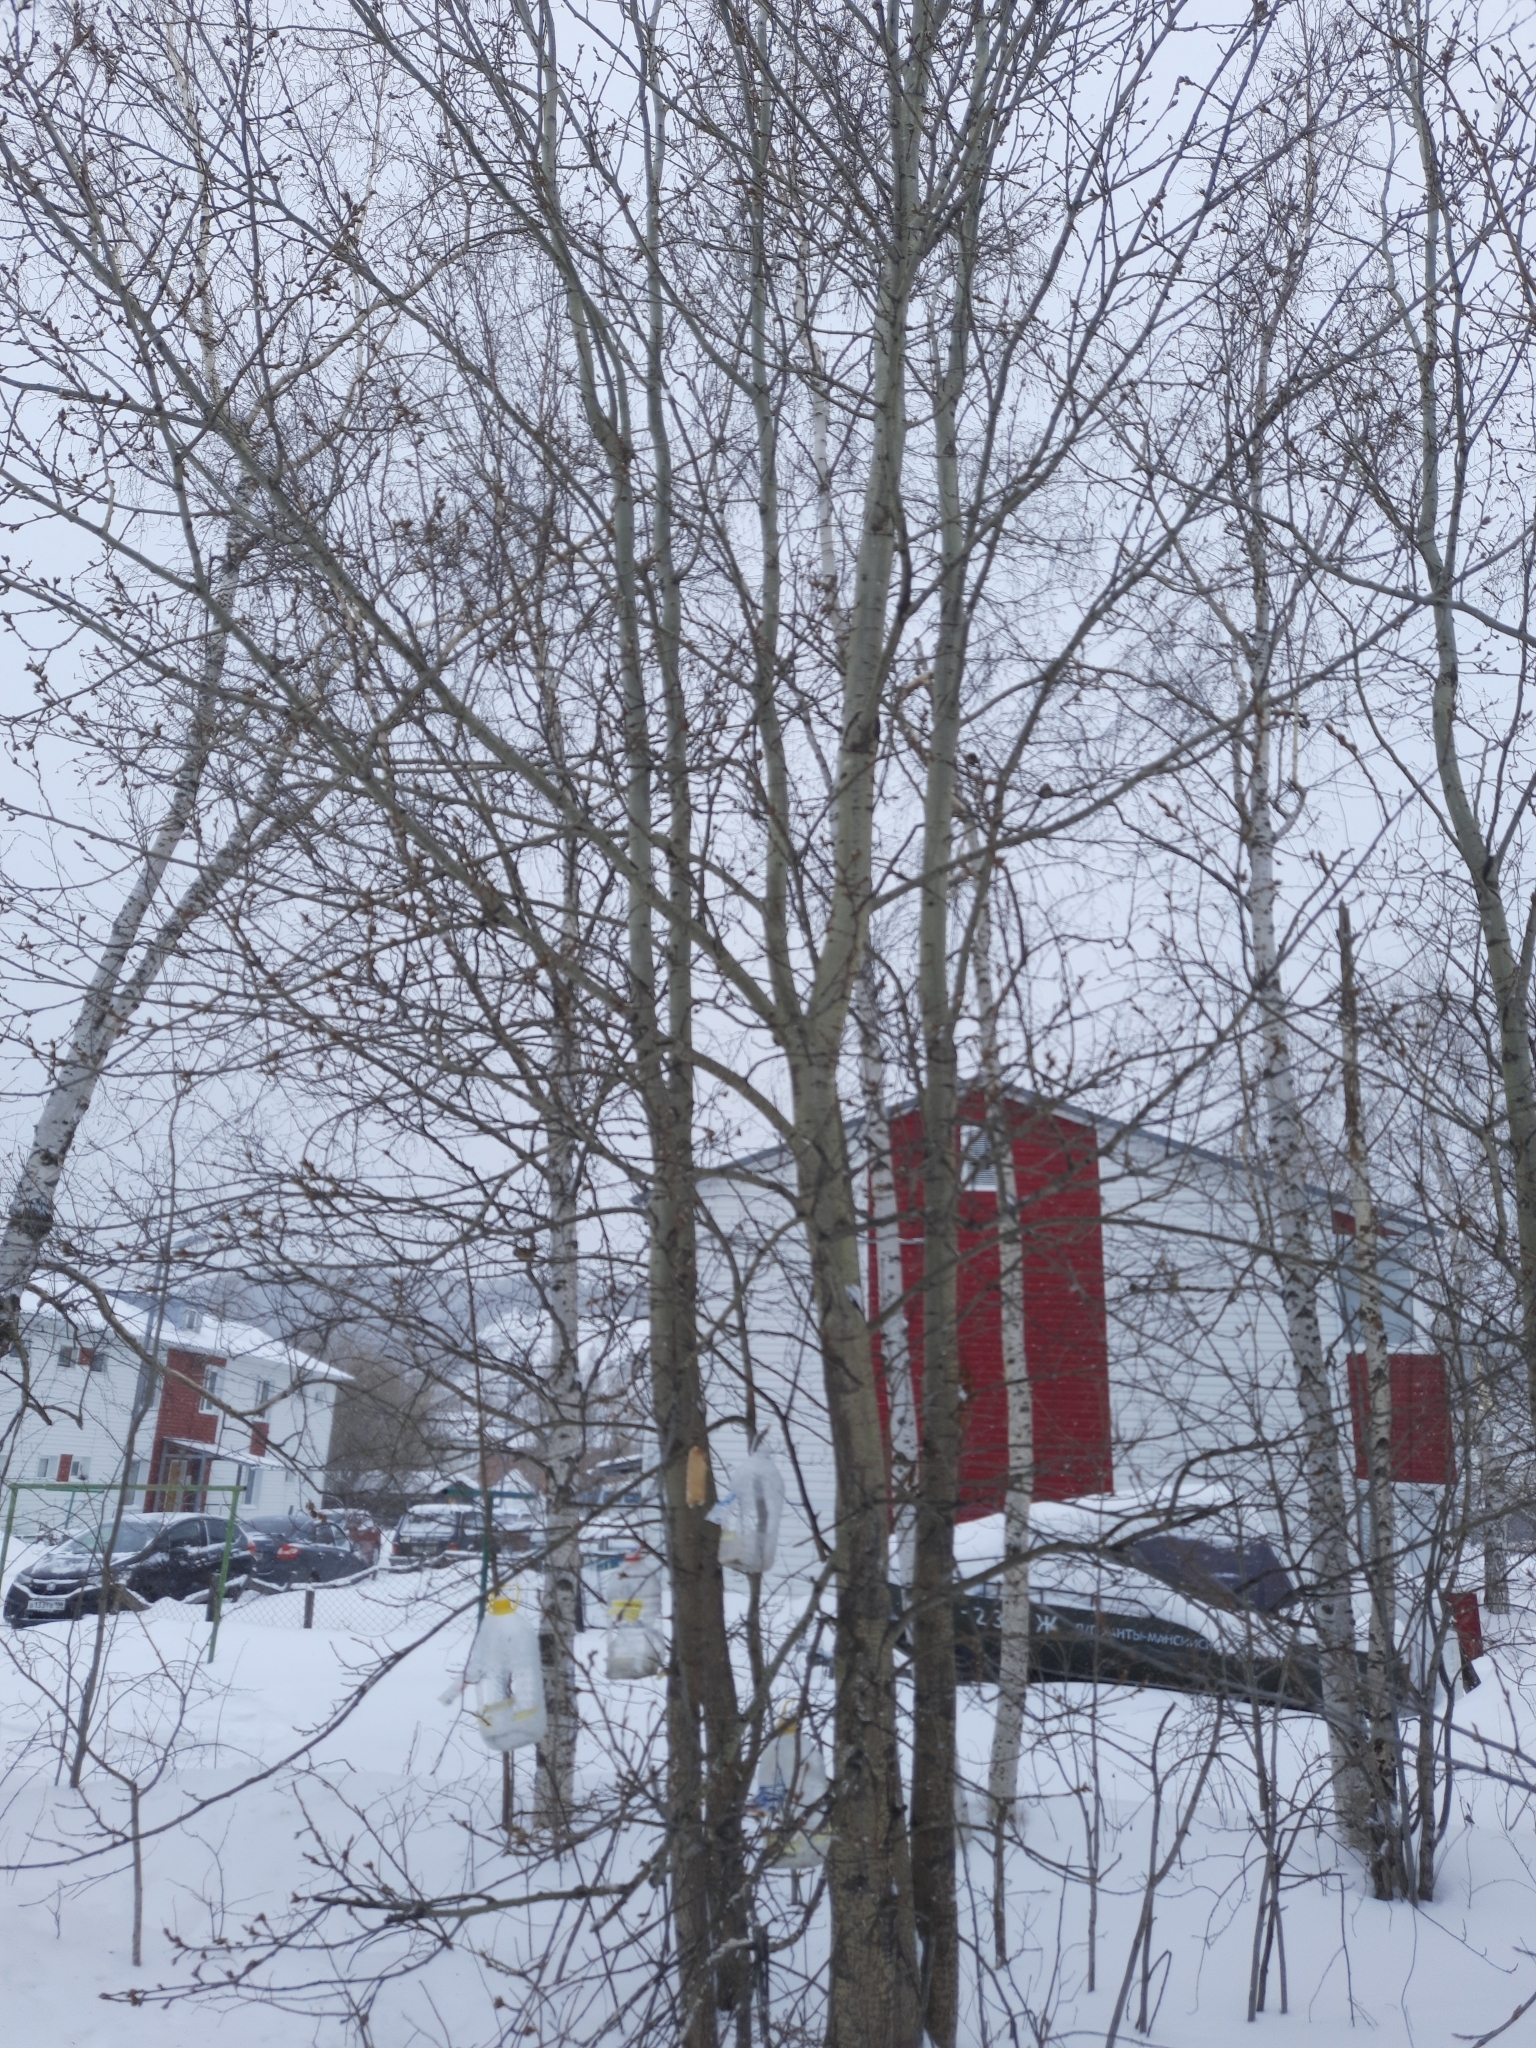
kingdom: Plantae
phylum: Tracheophyta
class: Magnoliopsida
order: Malpighiales
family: Salicaceae
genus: Populus
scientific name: Populus tremula
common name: European aspen
